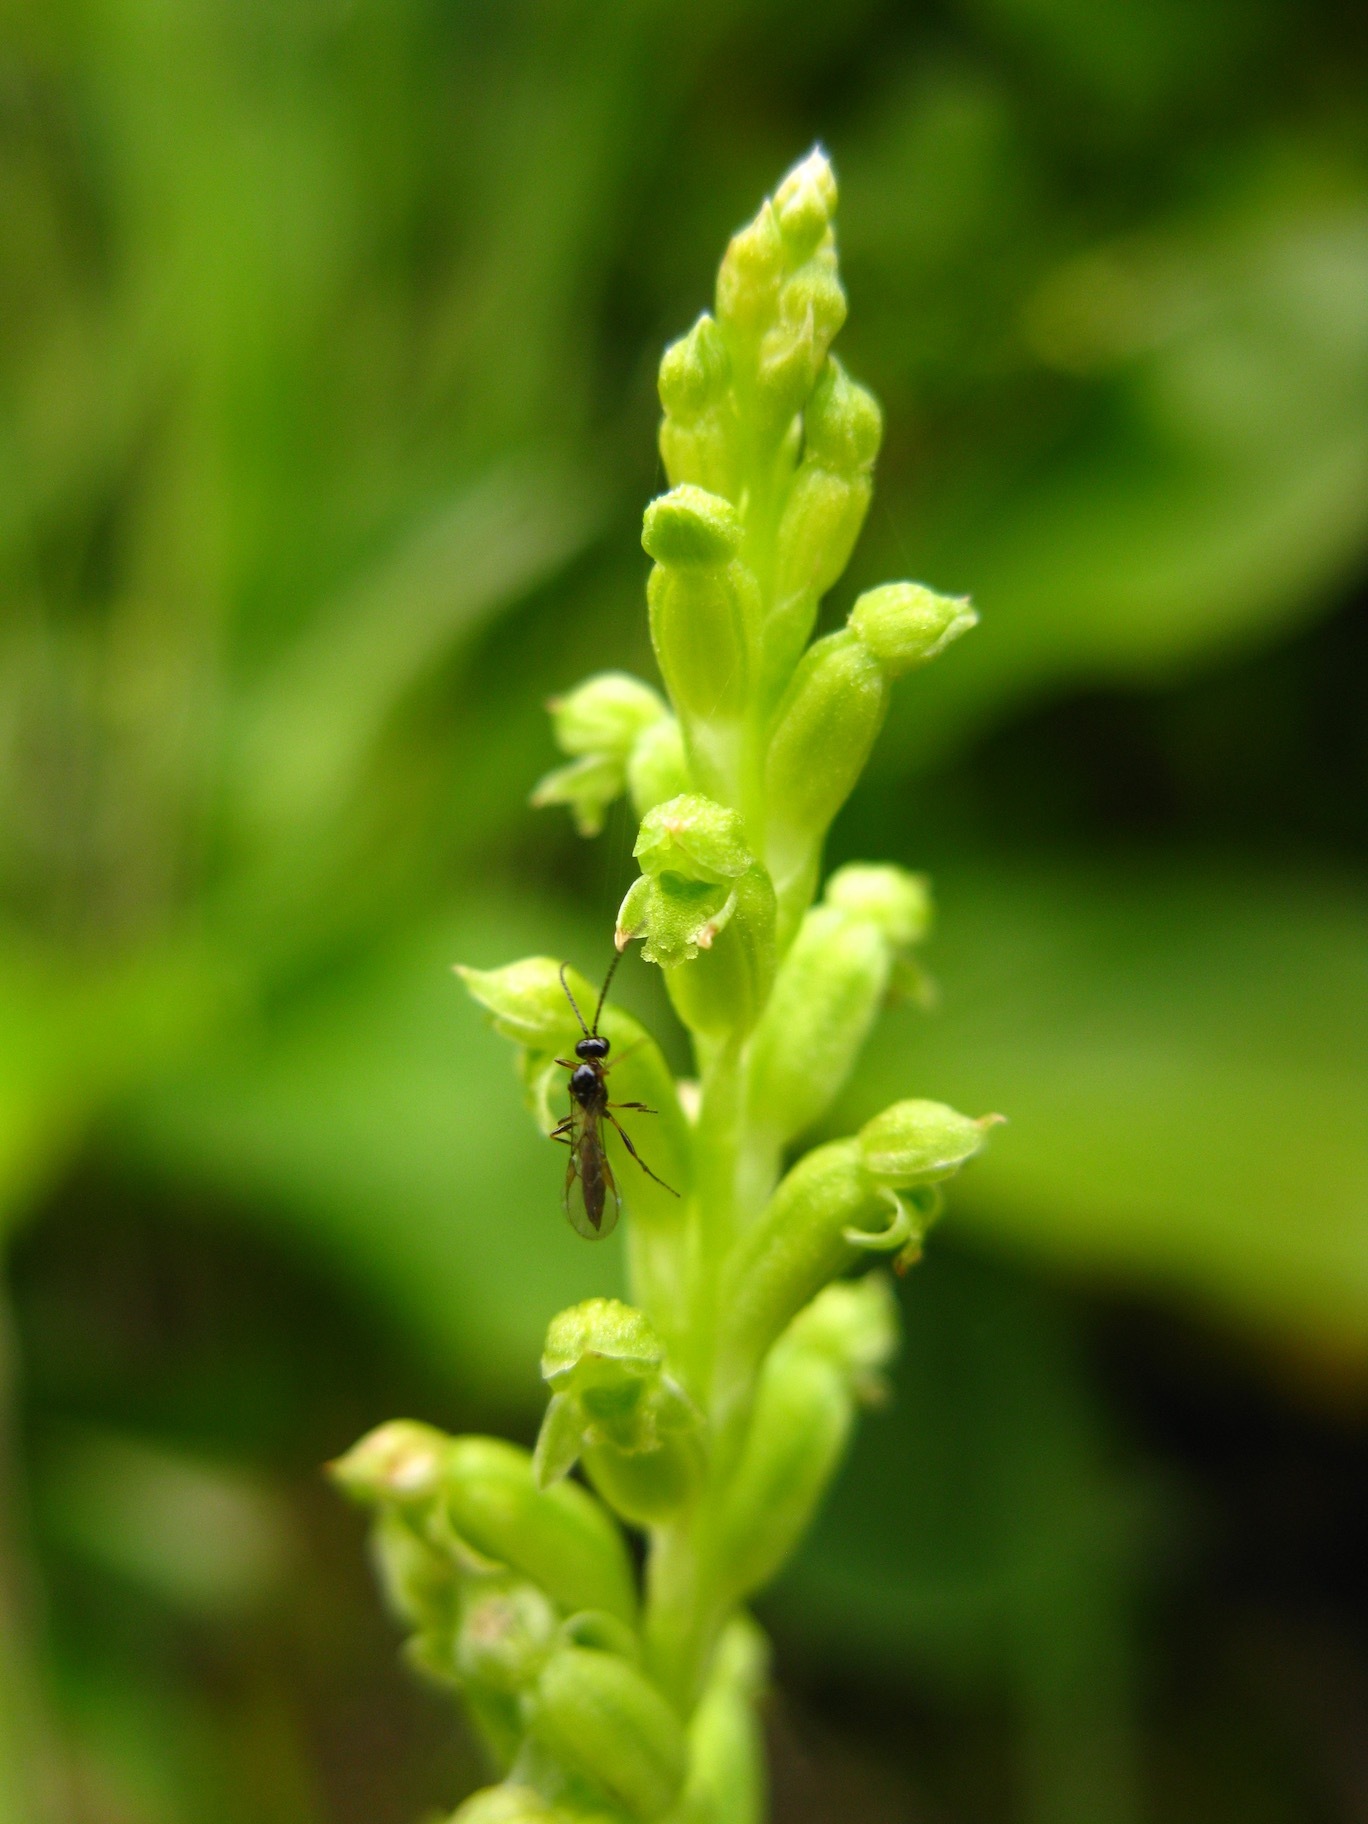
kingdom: Plantae
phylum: Tracheophyta
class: Liliopsida
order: Asparagales
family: Orchidaceae
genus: Microtis
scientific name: Microtis unifolia
